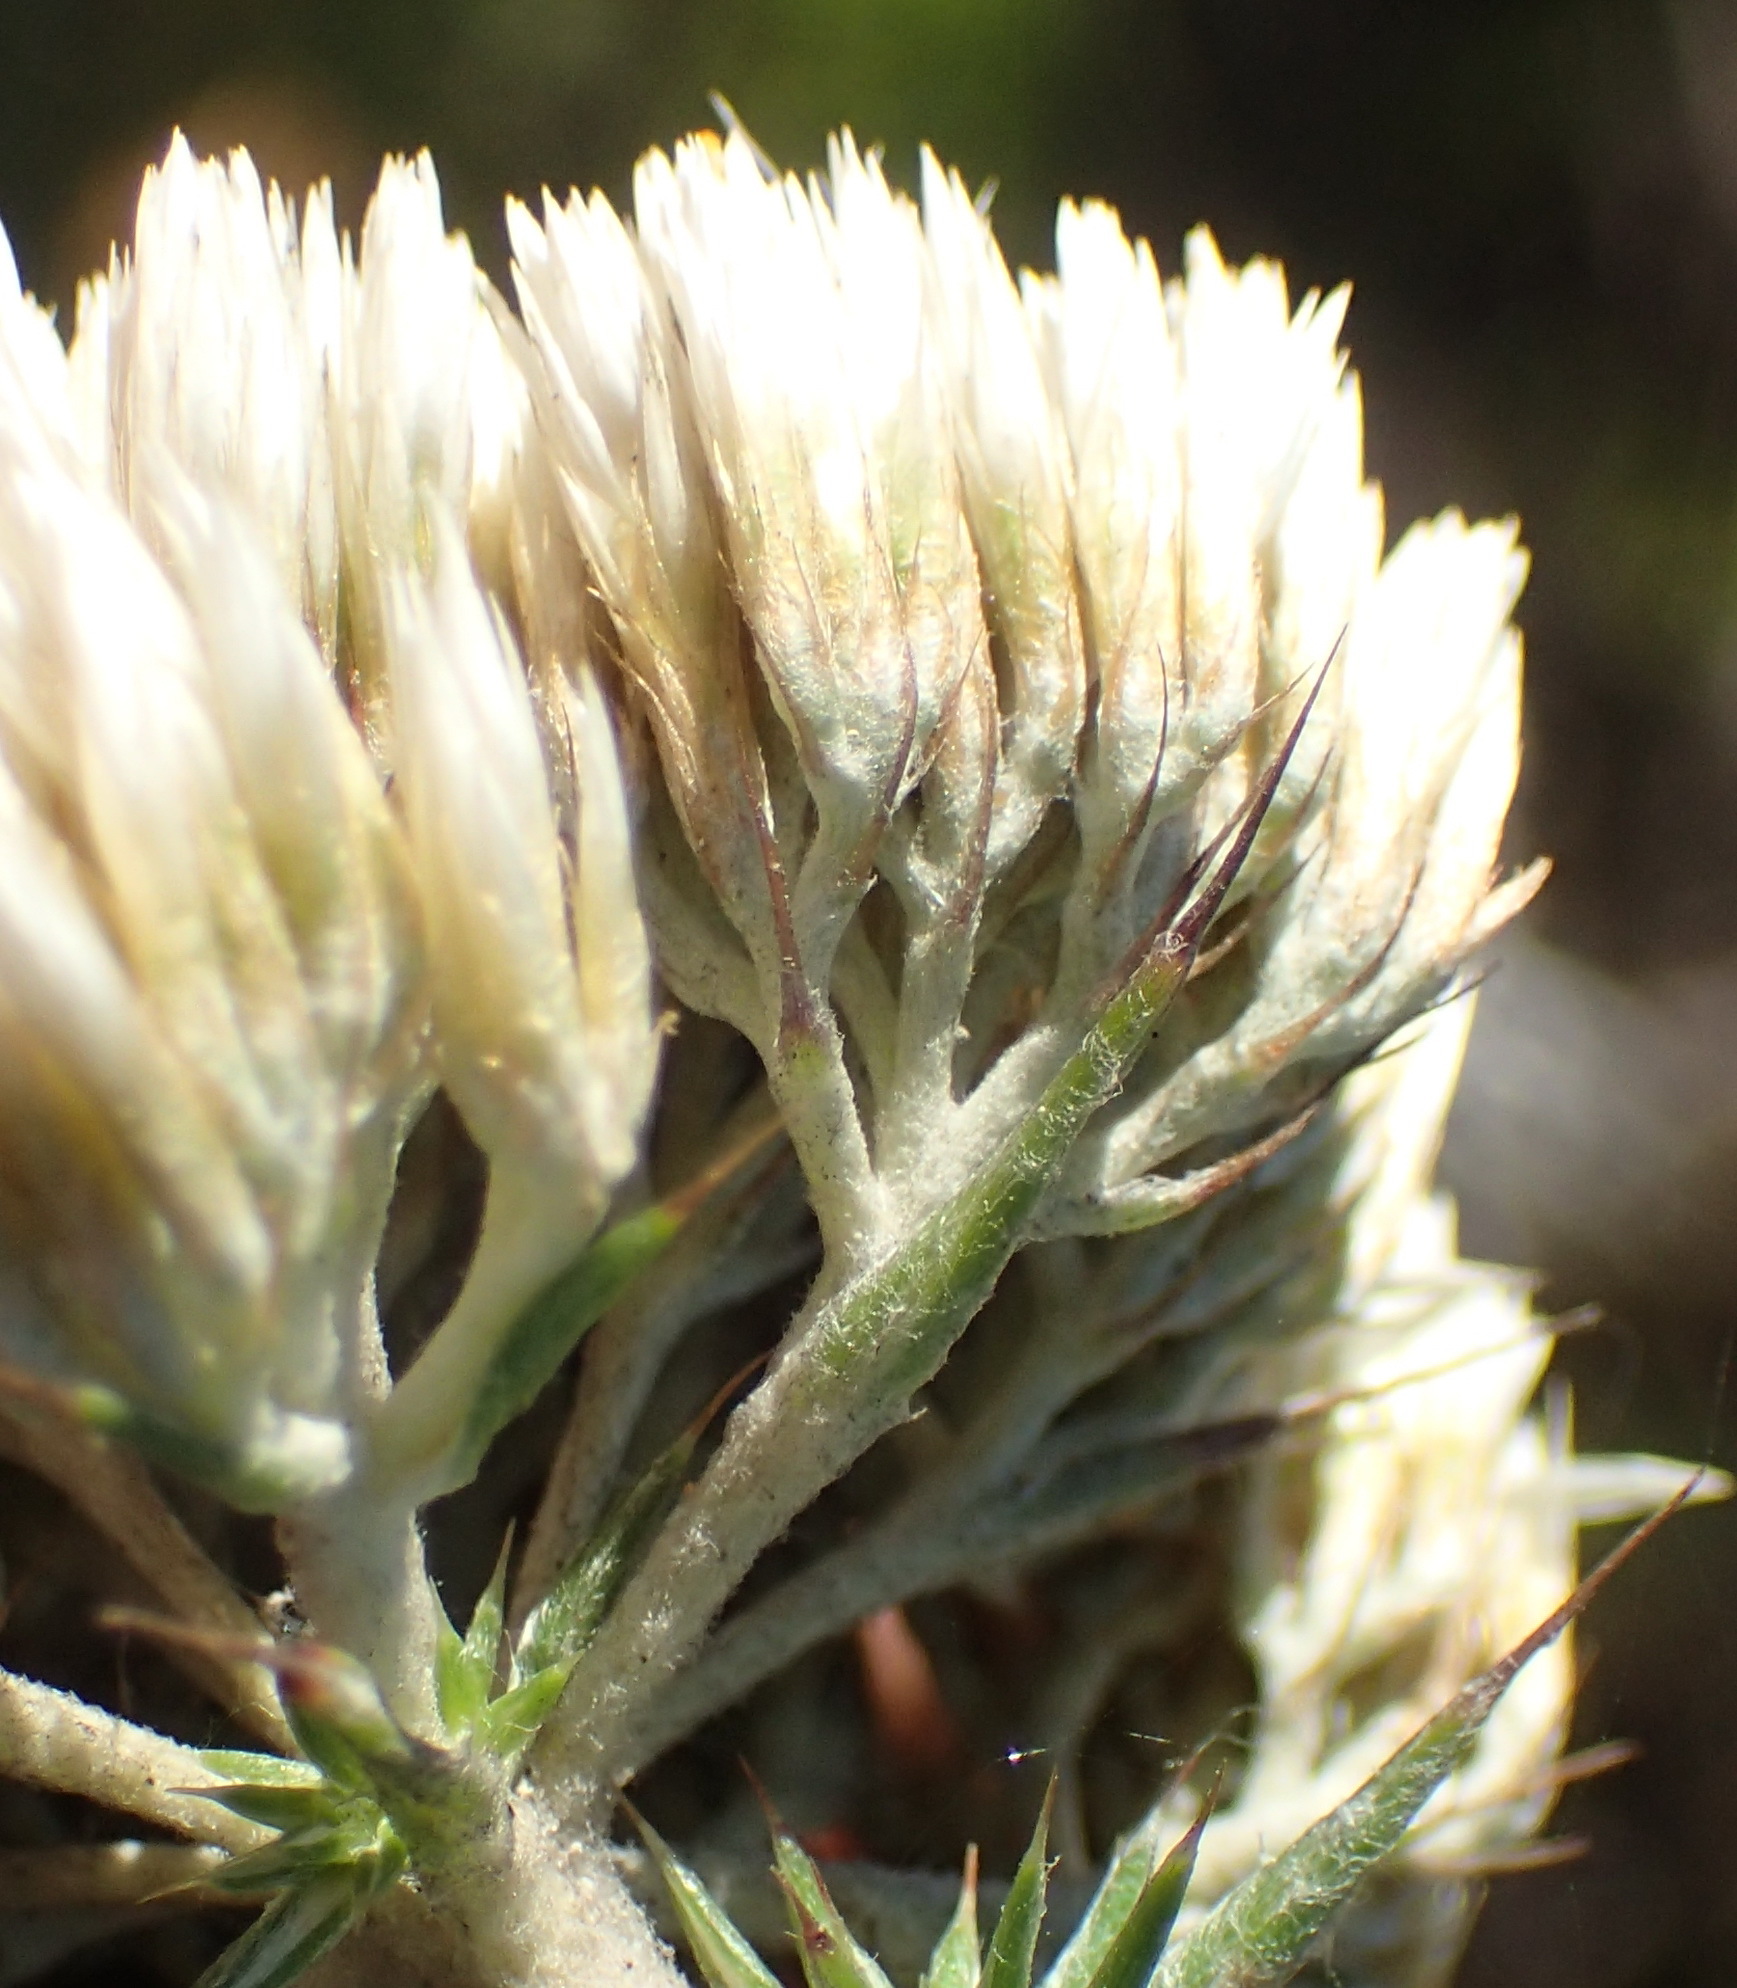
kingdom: Plantae
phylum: Tracheophyta
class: Magnoliopsida
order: Asterales
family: Asteraceae
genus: Metalasia
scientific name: Metalasia acuta
